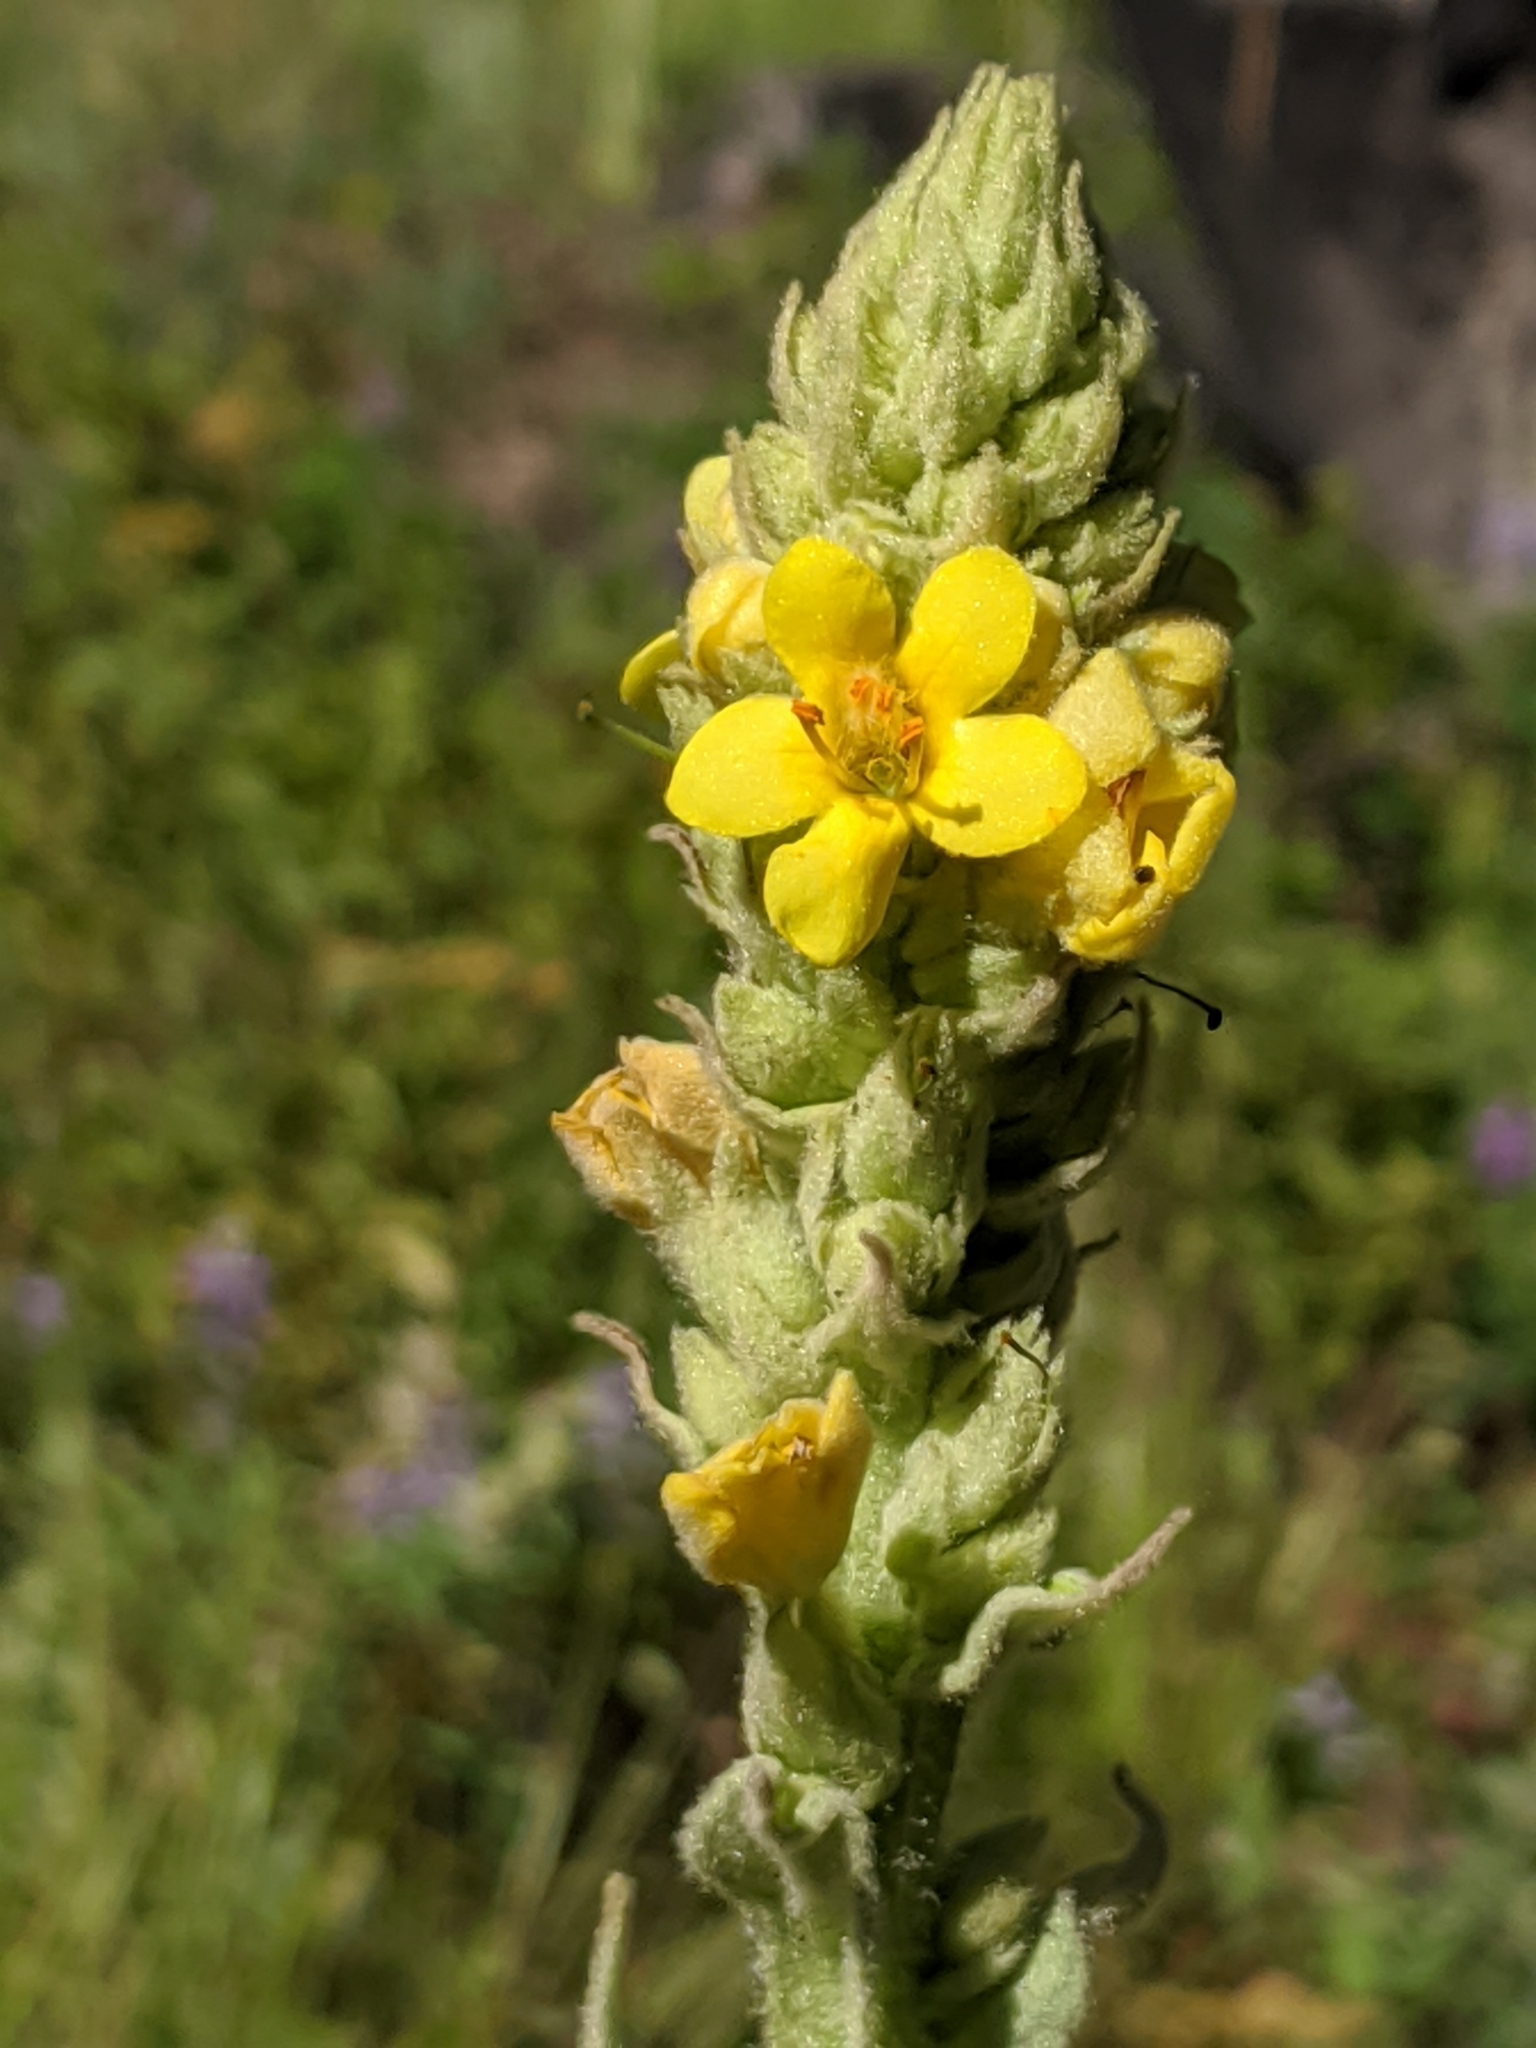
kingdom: Plantae
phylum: Tracheophyta
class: Magnoliopsida
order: Lamiales
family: Scrophulariaceae
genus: Verbascum
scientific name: Verbascum thapsus
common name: Common mullein
